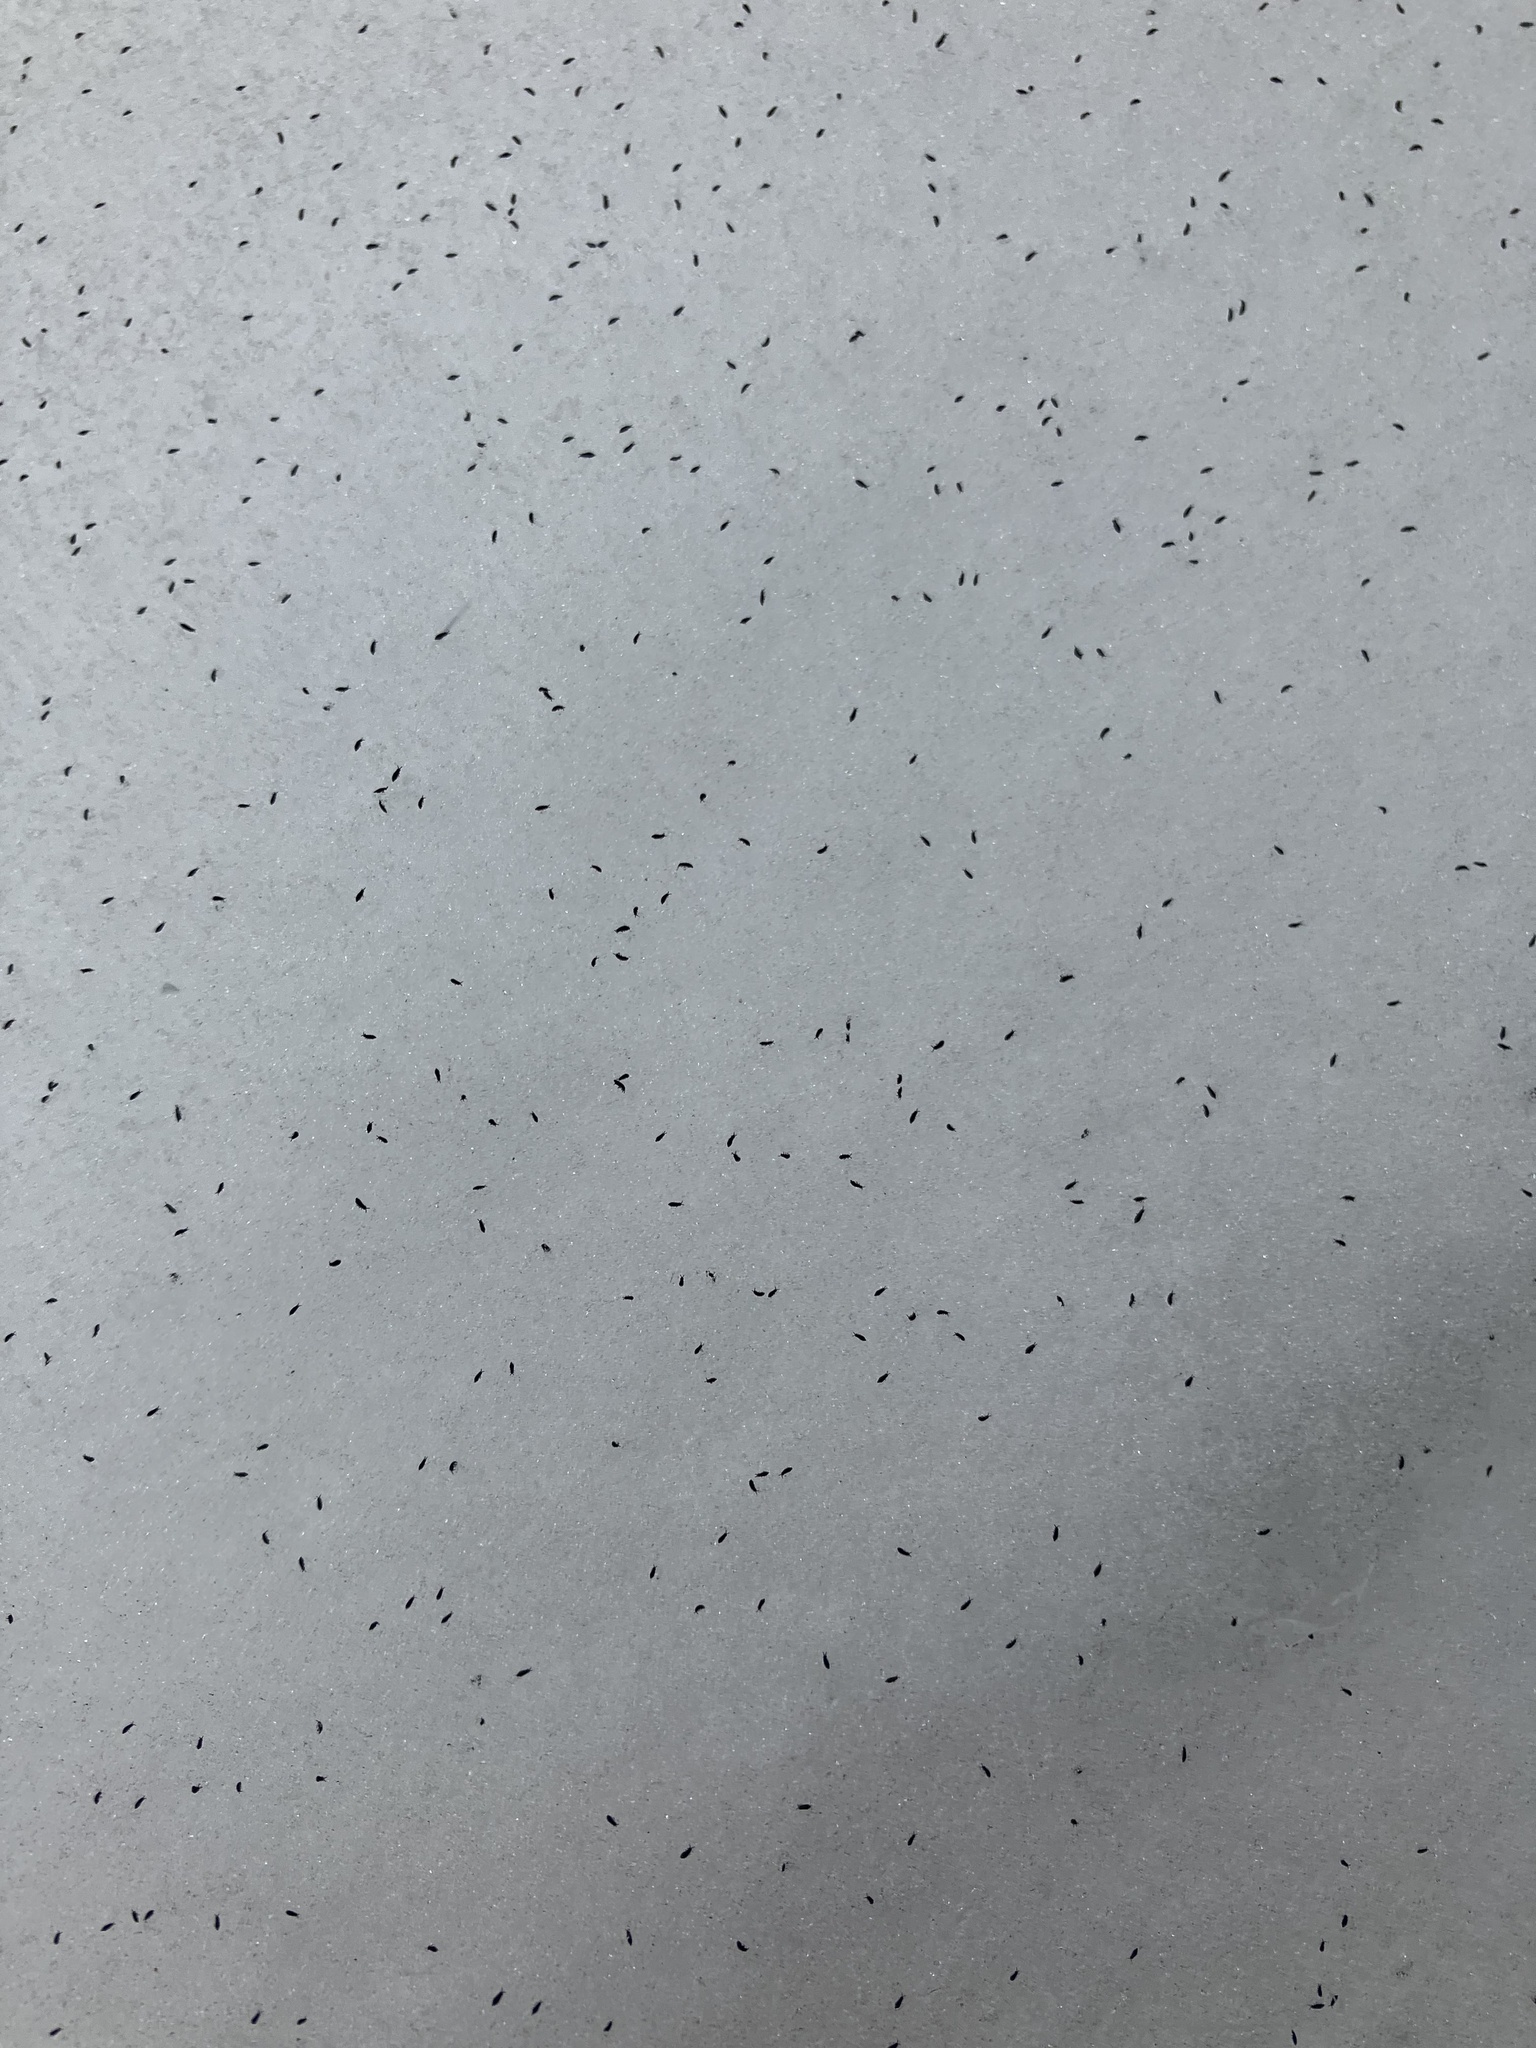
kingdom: Animalia
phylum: Arthropoda
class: Collembola
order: Poduromorpha
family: Hypogastruridae
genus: Hypogastrura
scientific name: Hypogastrura
